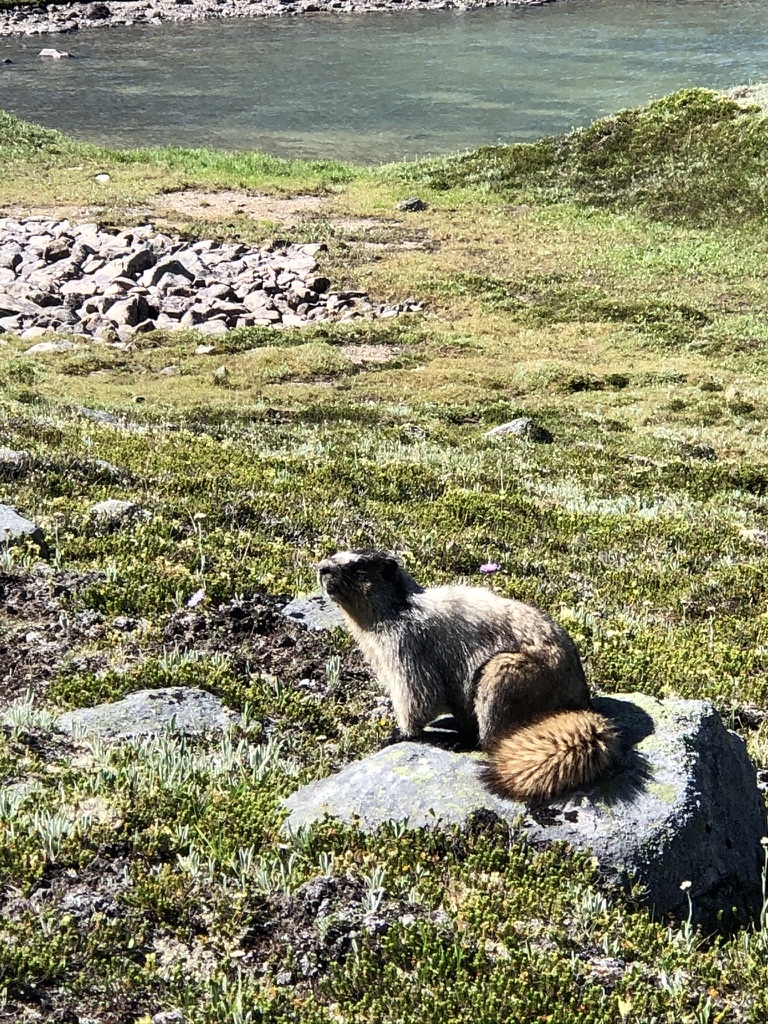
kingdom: Animalia
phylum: Chordata
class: Mammalia
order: Rodentia
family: Sciuridae
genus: Marmota
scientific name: Marmota caligata
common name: Hoary marmot
